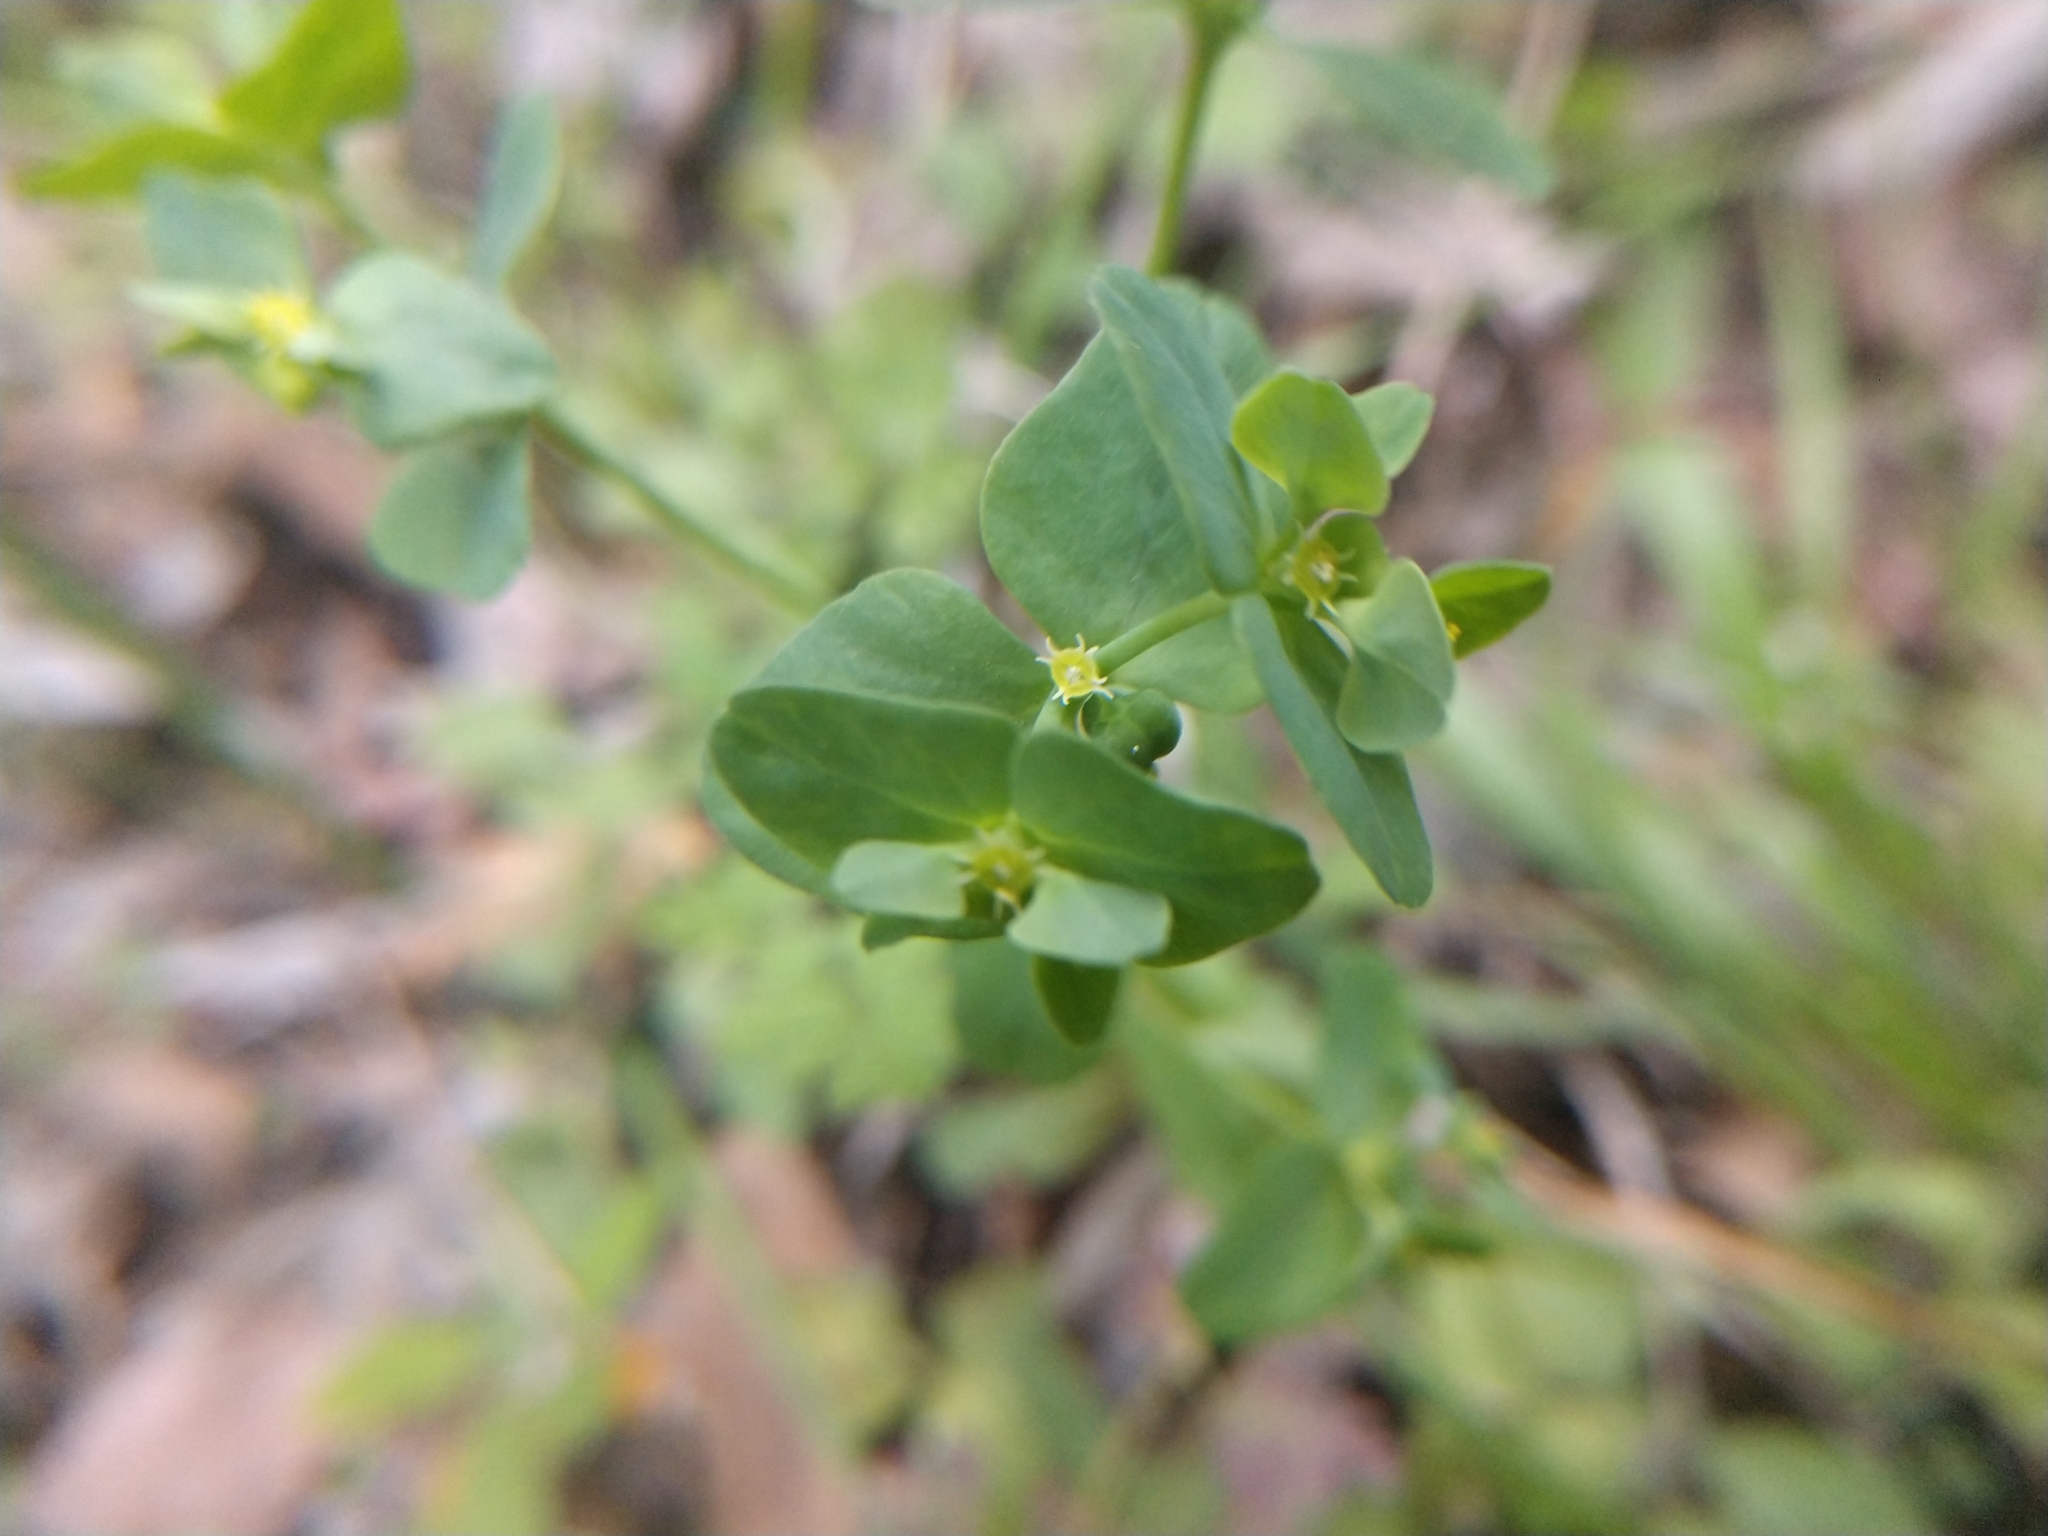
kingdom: Plantae
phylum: Tracheophyta
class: Magnoliopsida
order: Malpighiales
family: Euphorbiaceae
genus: Euphorbia
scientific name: Euphorbia helleri
